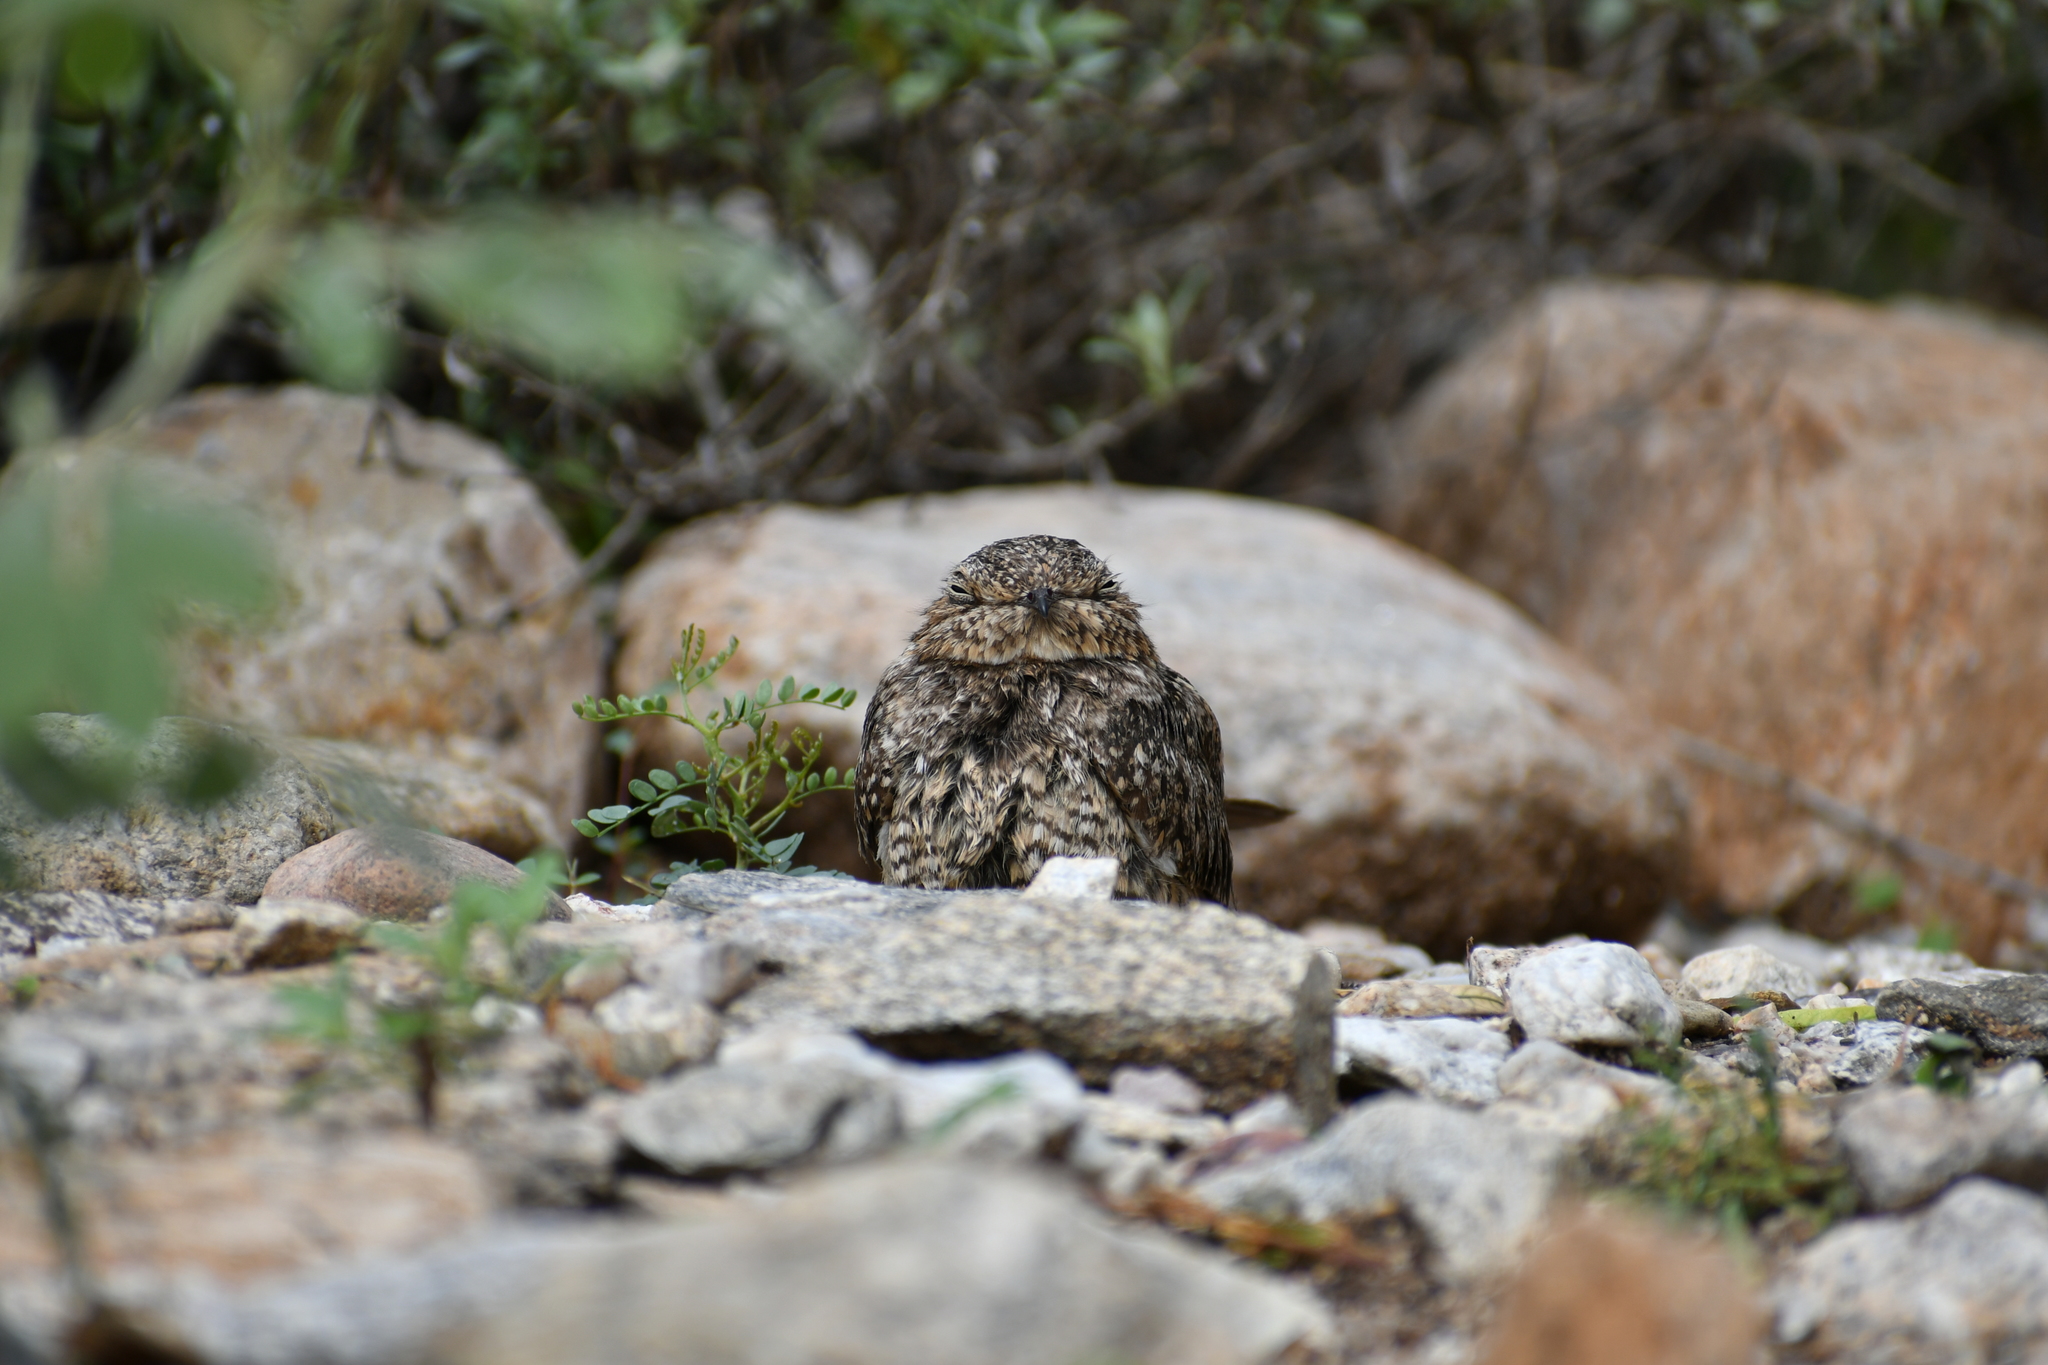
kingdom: Animalia
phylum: Chordata
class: Aves
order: Caprimulgiformes
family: Caprimulgidae
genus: Chordeiles
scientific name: Chordeiles acutipennis
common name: Lesser nighthawk
